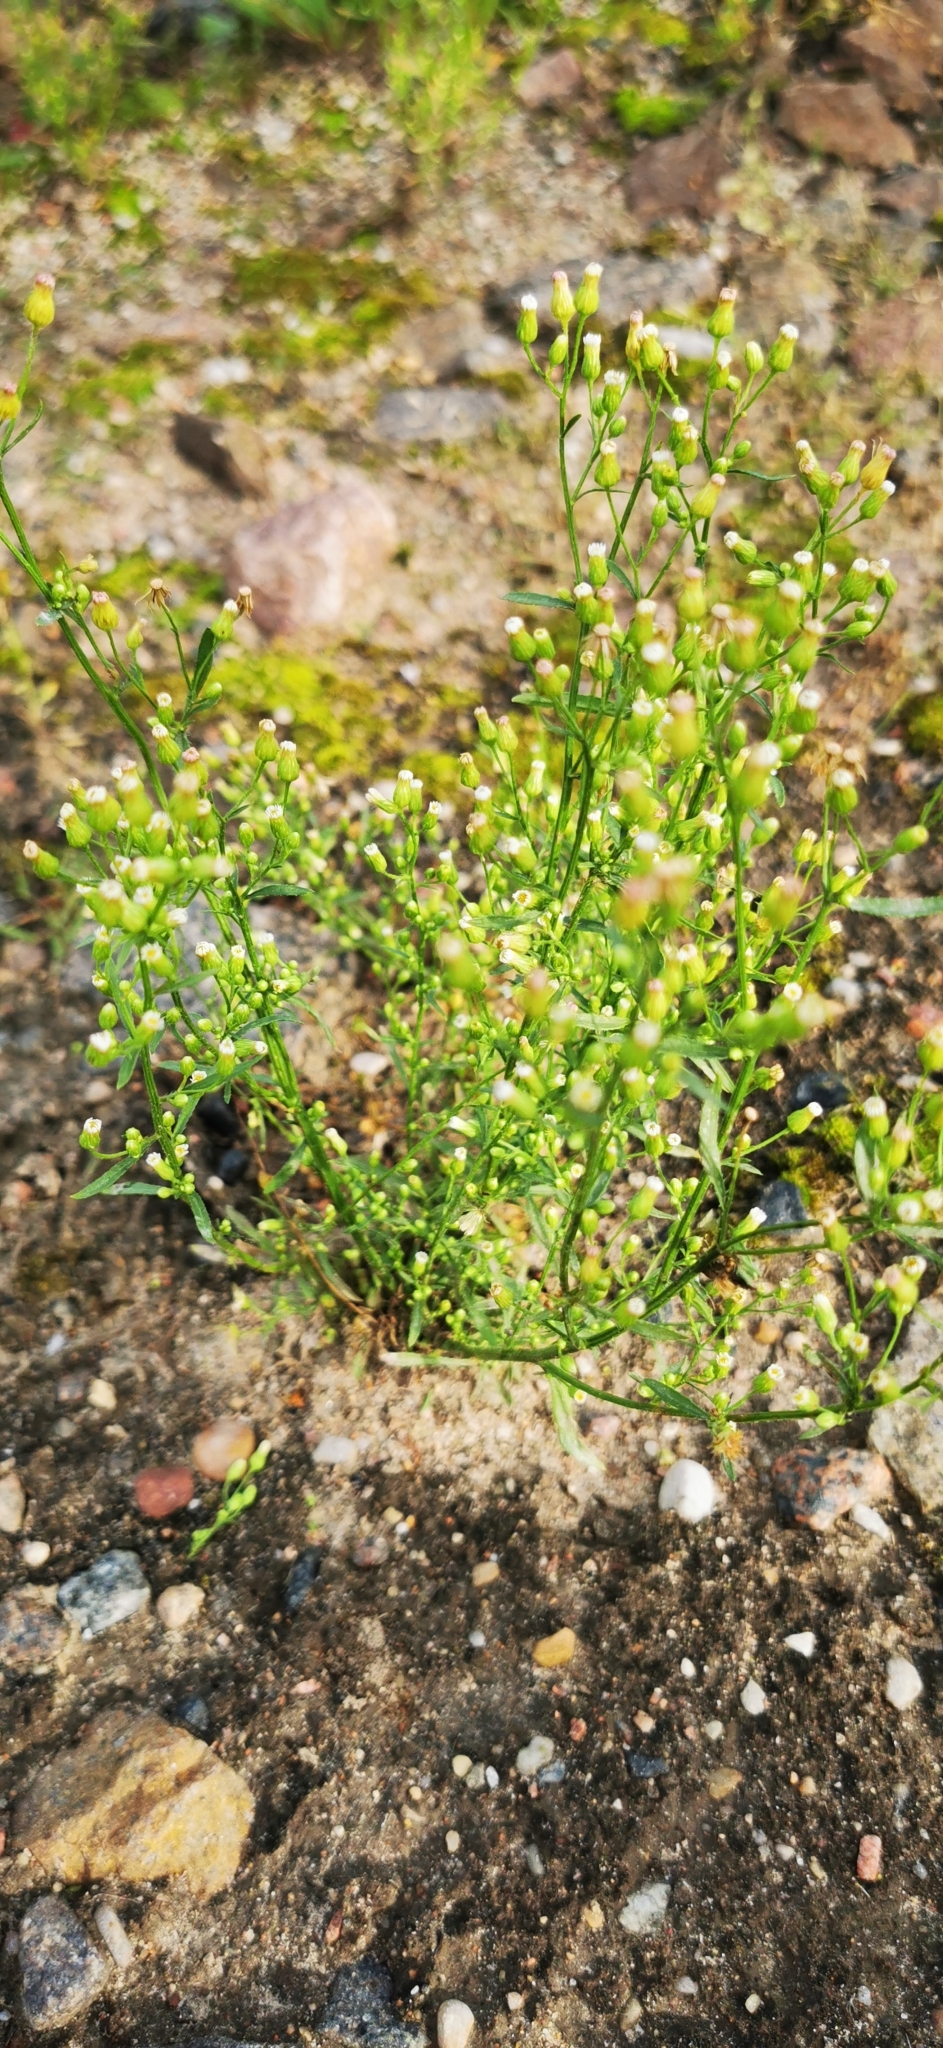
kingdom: Plantae
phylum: Tracheophyta
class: Magnoliopsida
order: Asterales
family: Asteraceae
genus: Erigeron
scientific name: Erigeron canadensis
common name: Canadian fleabane
